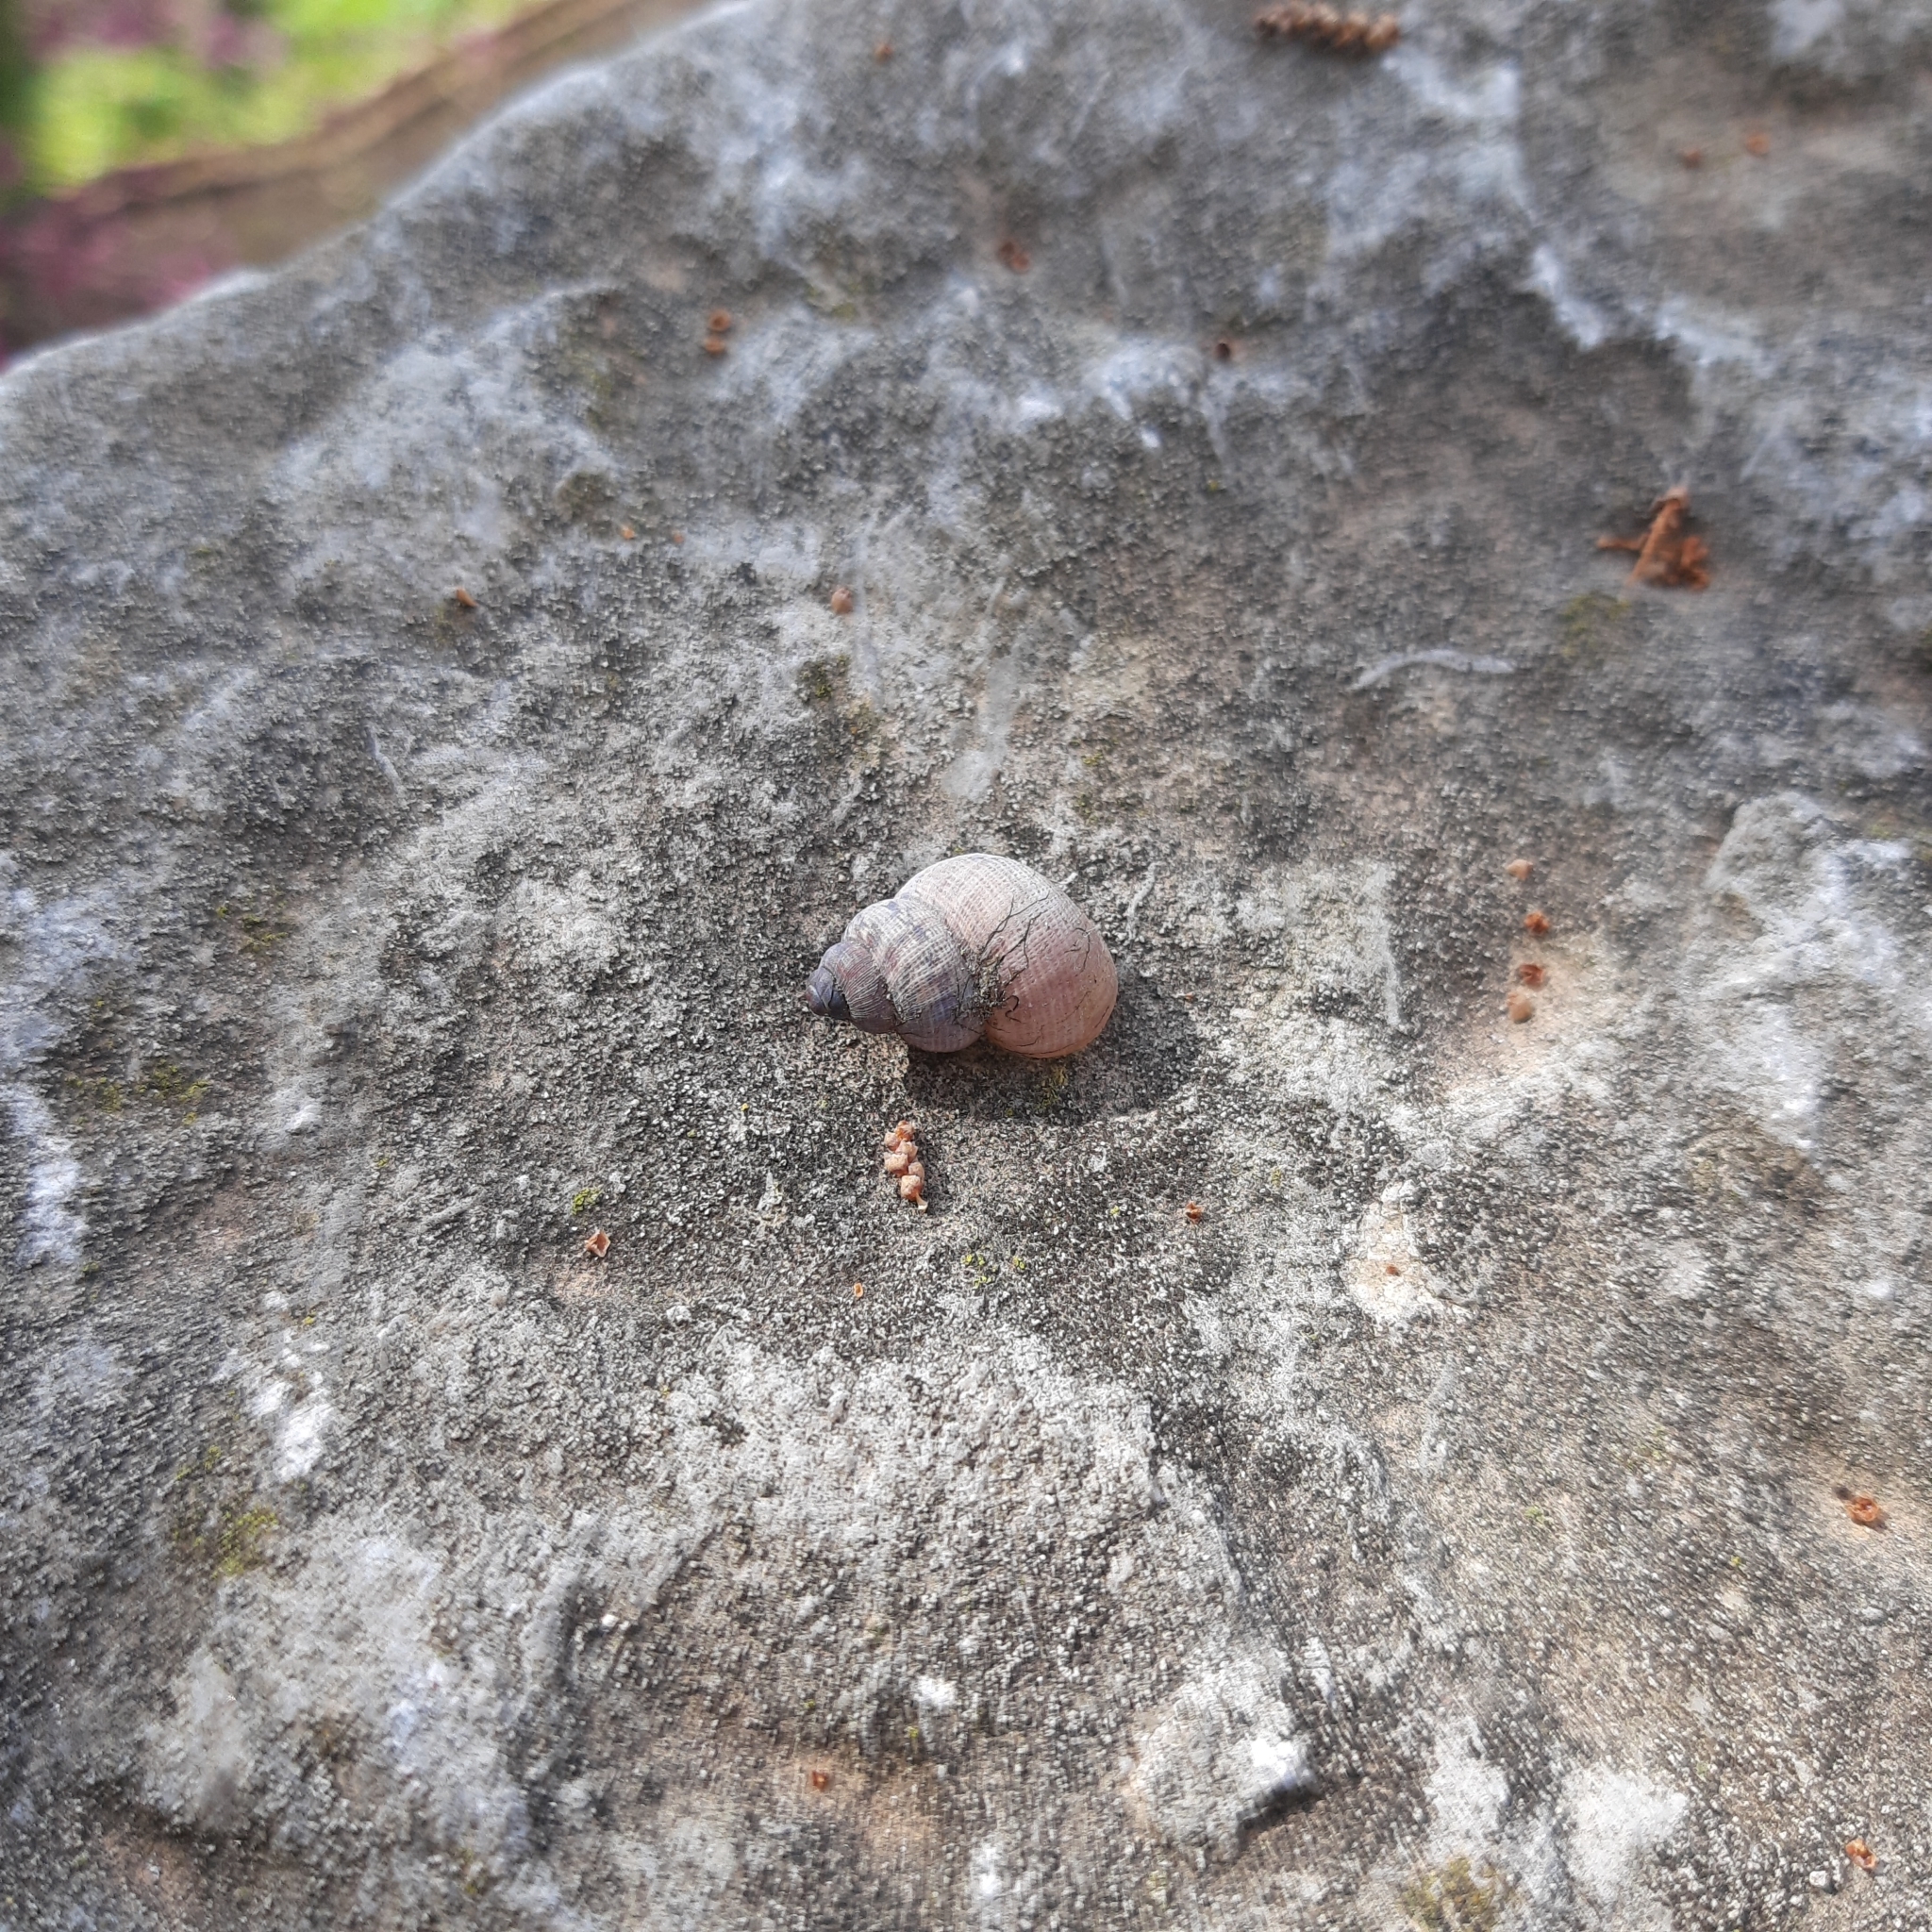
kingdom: Animalia
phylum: Mollusca
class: Gastropoda
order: Littorinimorpha
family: Pomatiidae
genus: Pomatias
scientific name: Pomatias elegans
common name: Red-mouthed snail
